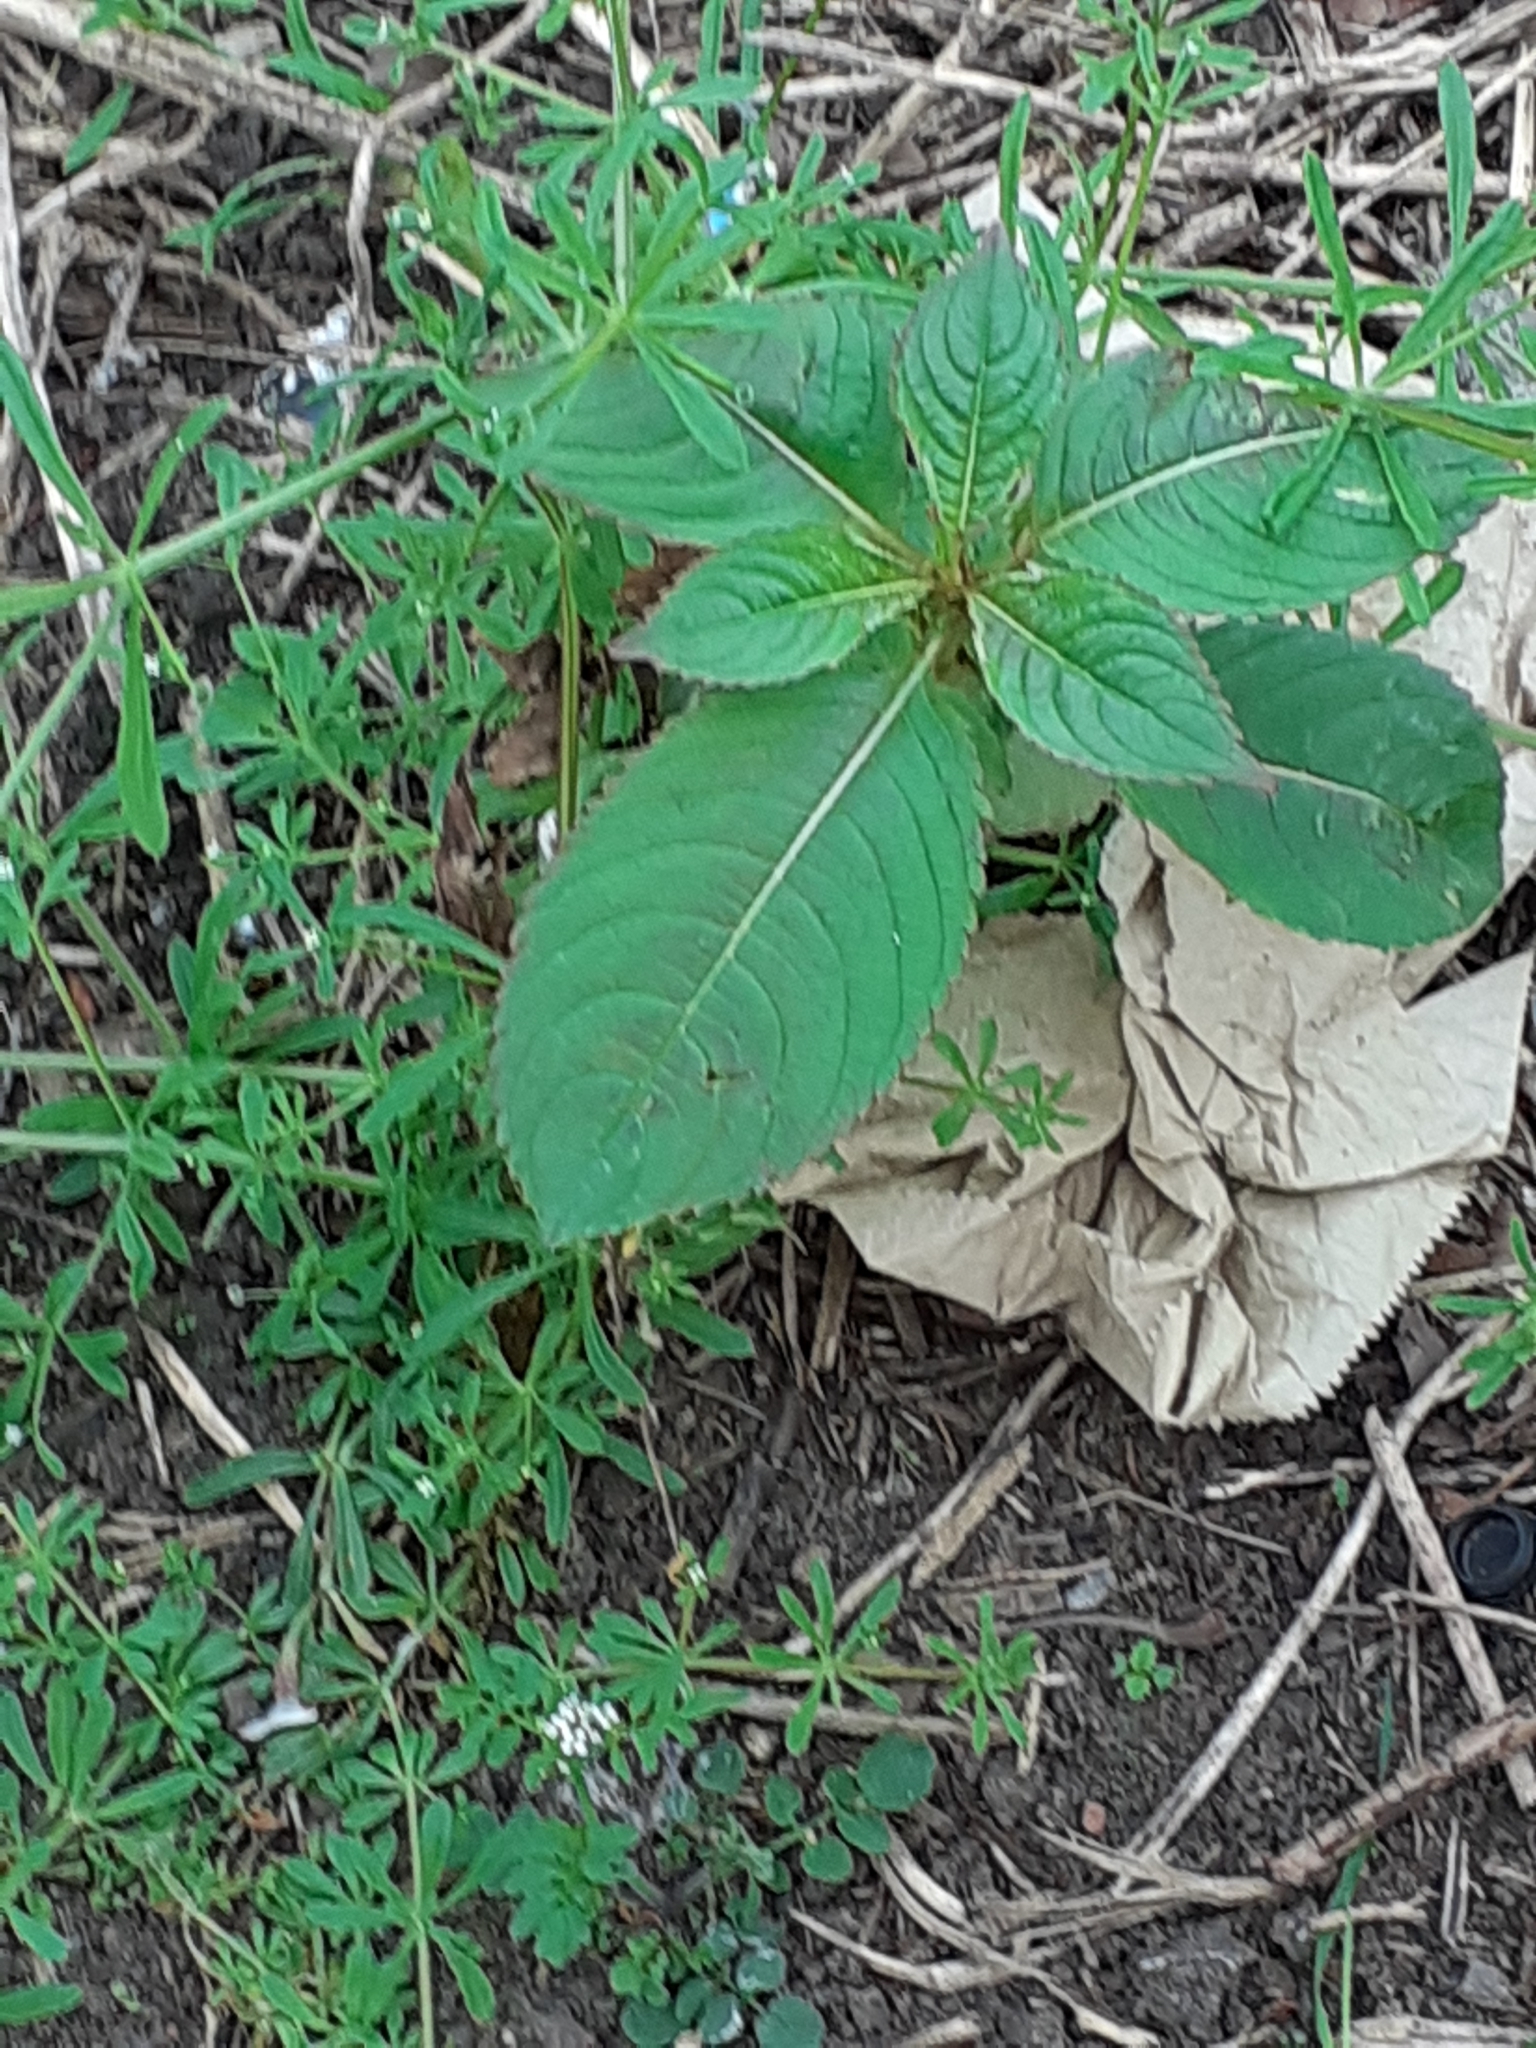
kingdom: Plantae
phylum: Tracheophyta
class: Magnoliopsida
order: Ericales
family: Balsaminaceae
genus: Impatiens
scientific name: Impatiens glandulifera
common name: Himalayan balsam
